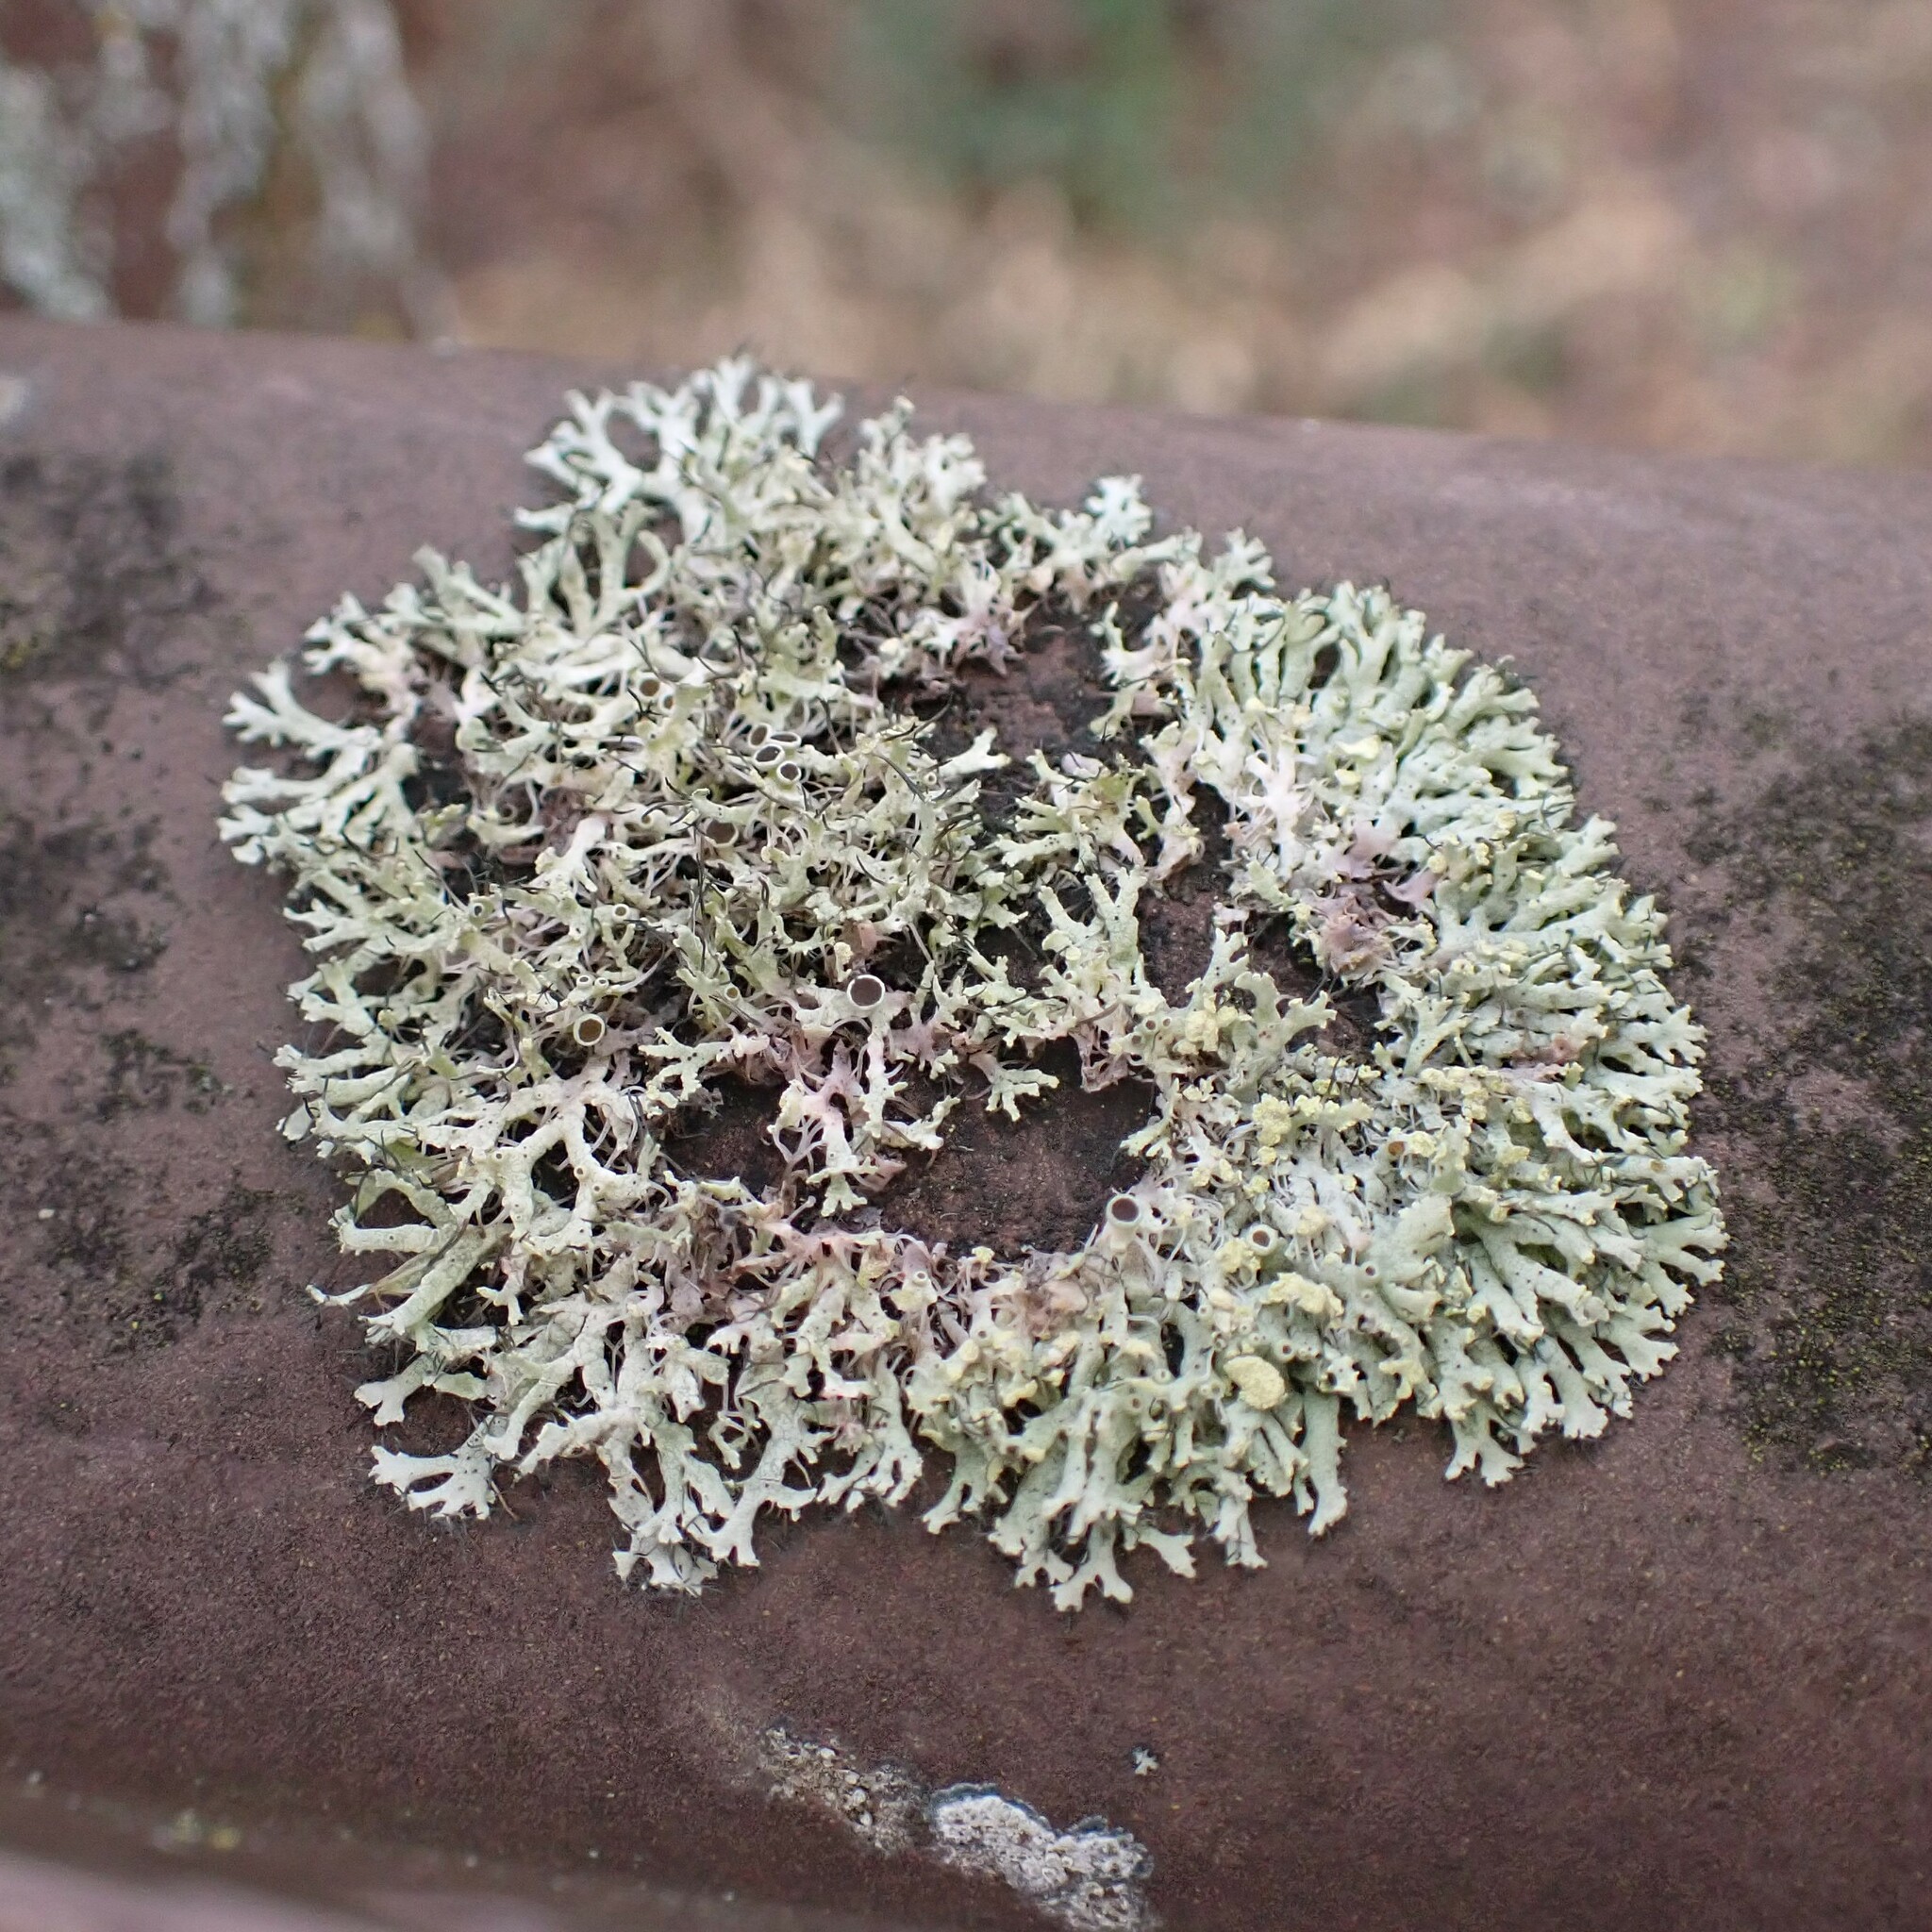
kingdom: Fungi
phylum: Ascomycota
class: Lecanoromycetes
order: Caliciales
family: Physciaceae
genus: Physcia
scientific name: Physcia tenella
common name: Fringed rosette lichen
